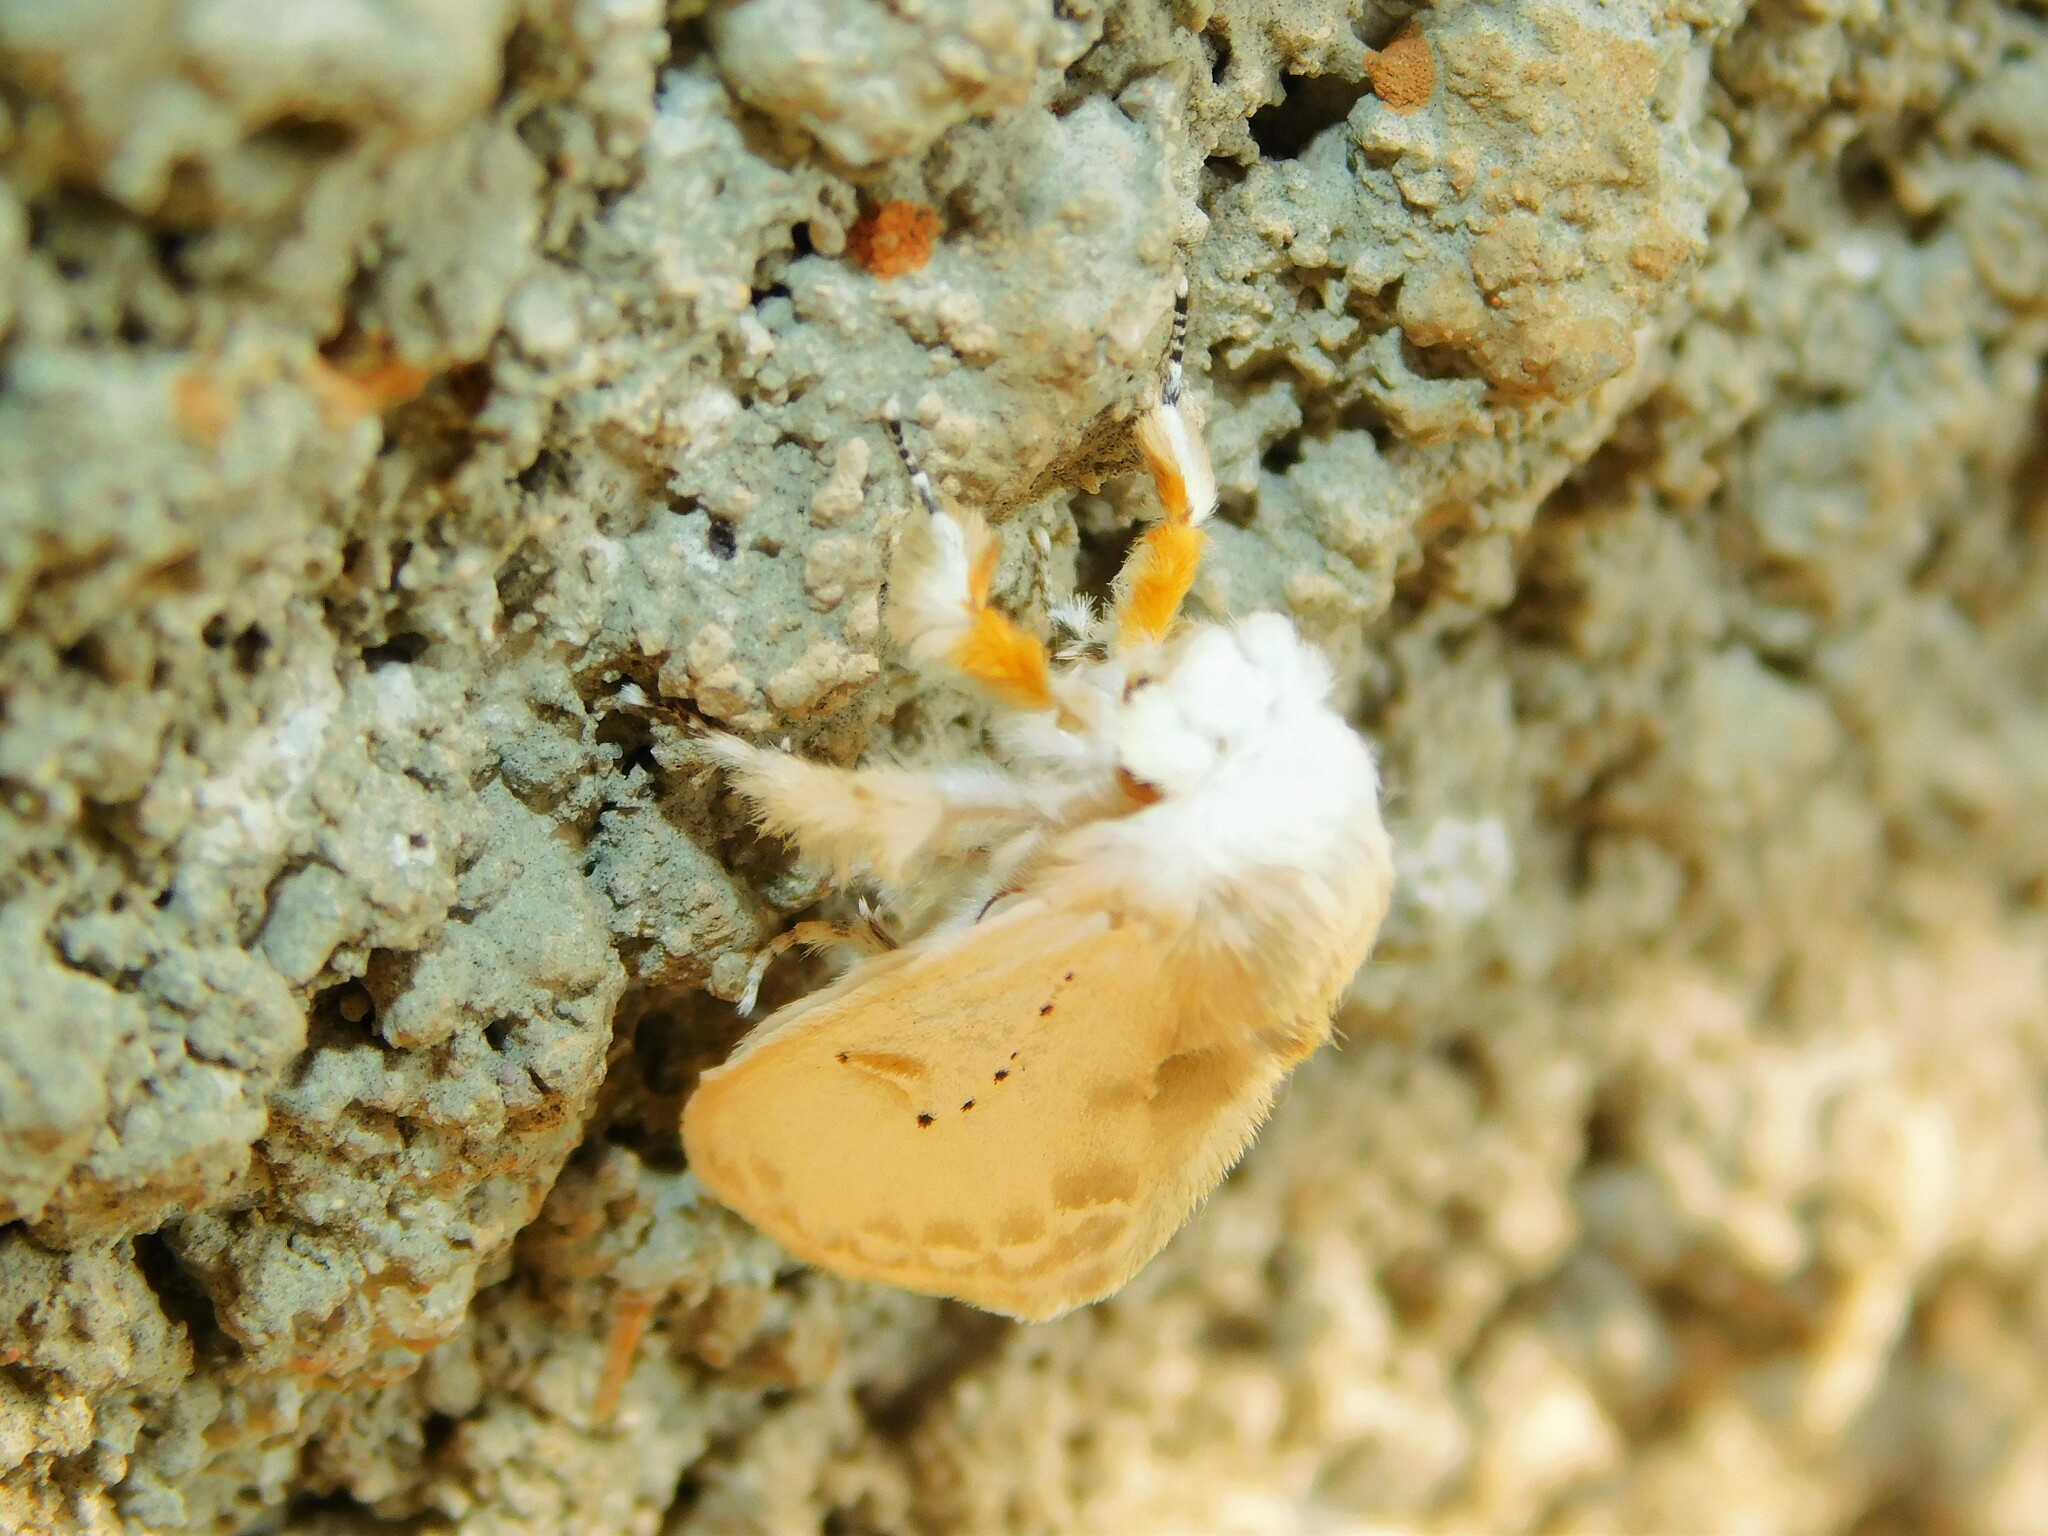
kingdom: Animalia
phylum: Arthropoda
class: Insecta
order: Lepidoptera
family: Erebidae
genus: Naroma
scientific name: Naroma varipes
